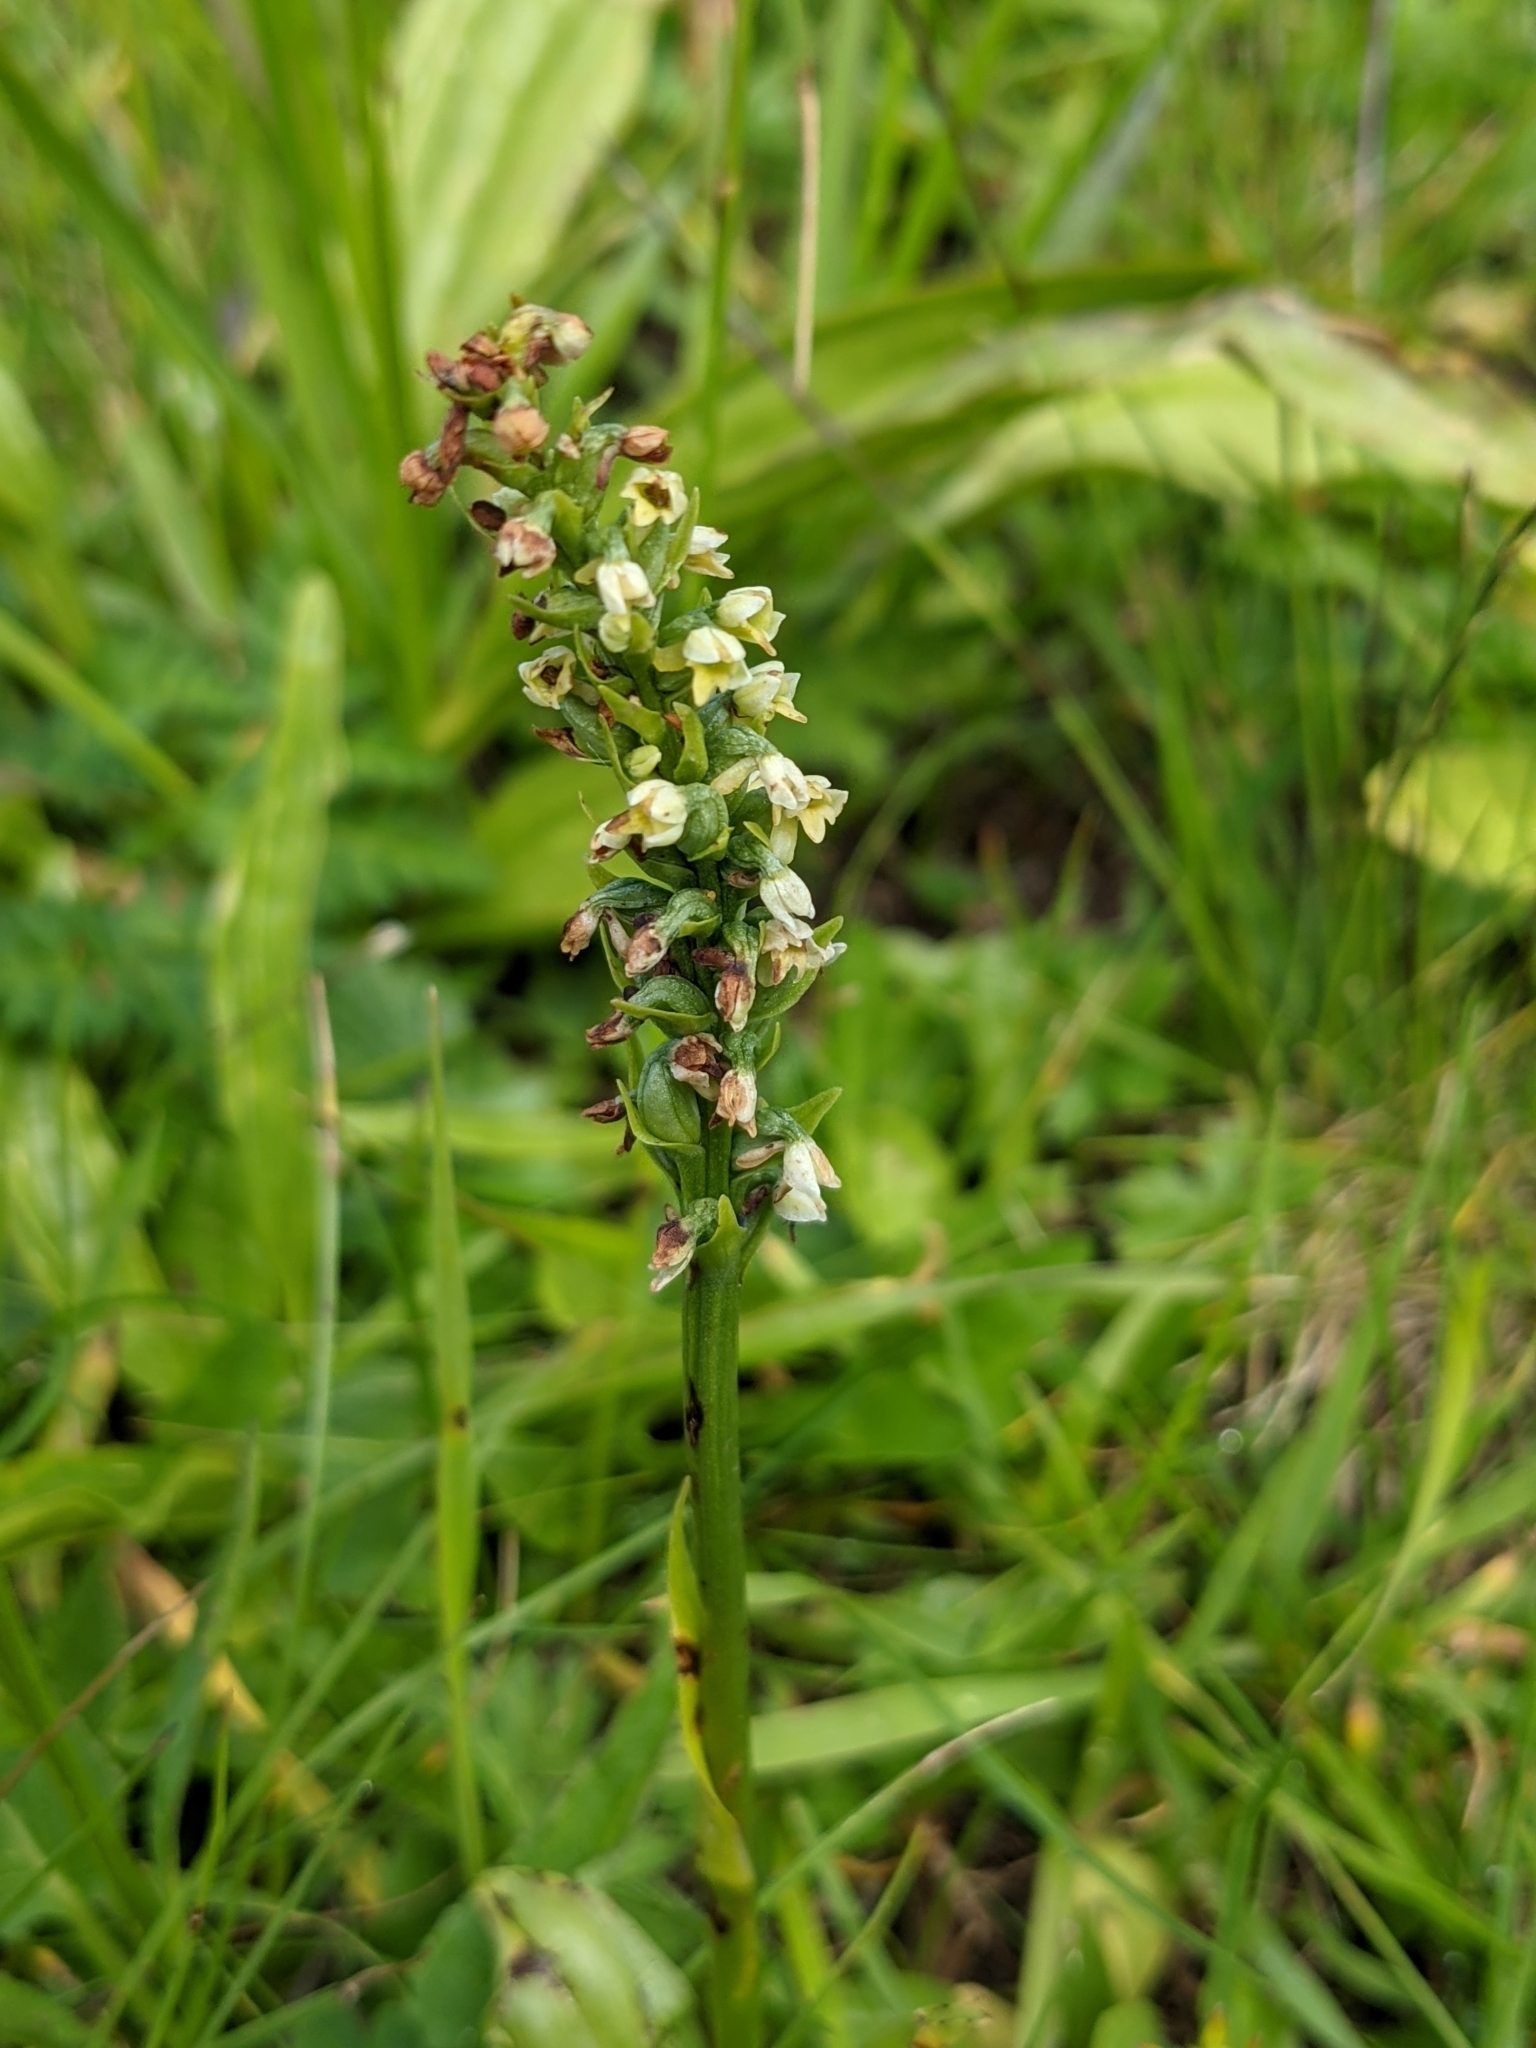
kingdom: Plantae
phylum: Tracheophyta
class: Liliopsida
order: Asparagales
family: Orchidaceae
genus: Pseudorchis
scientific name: Pseudorchis albida
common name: Small-white orchid
